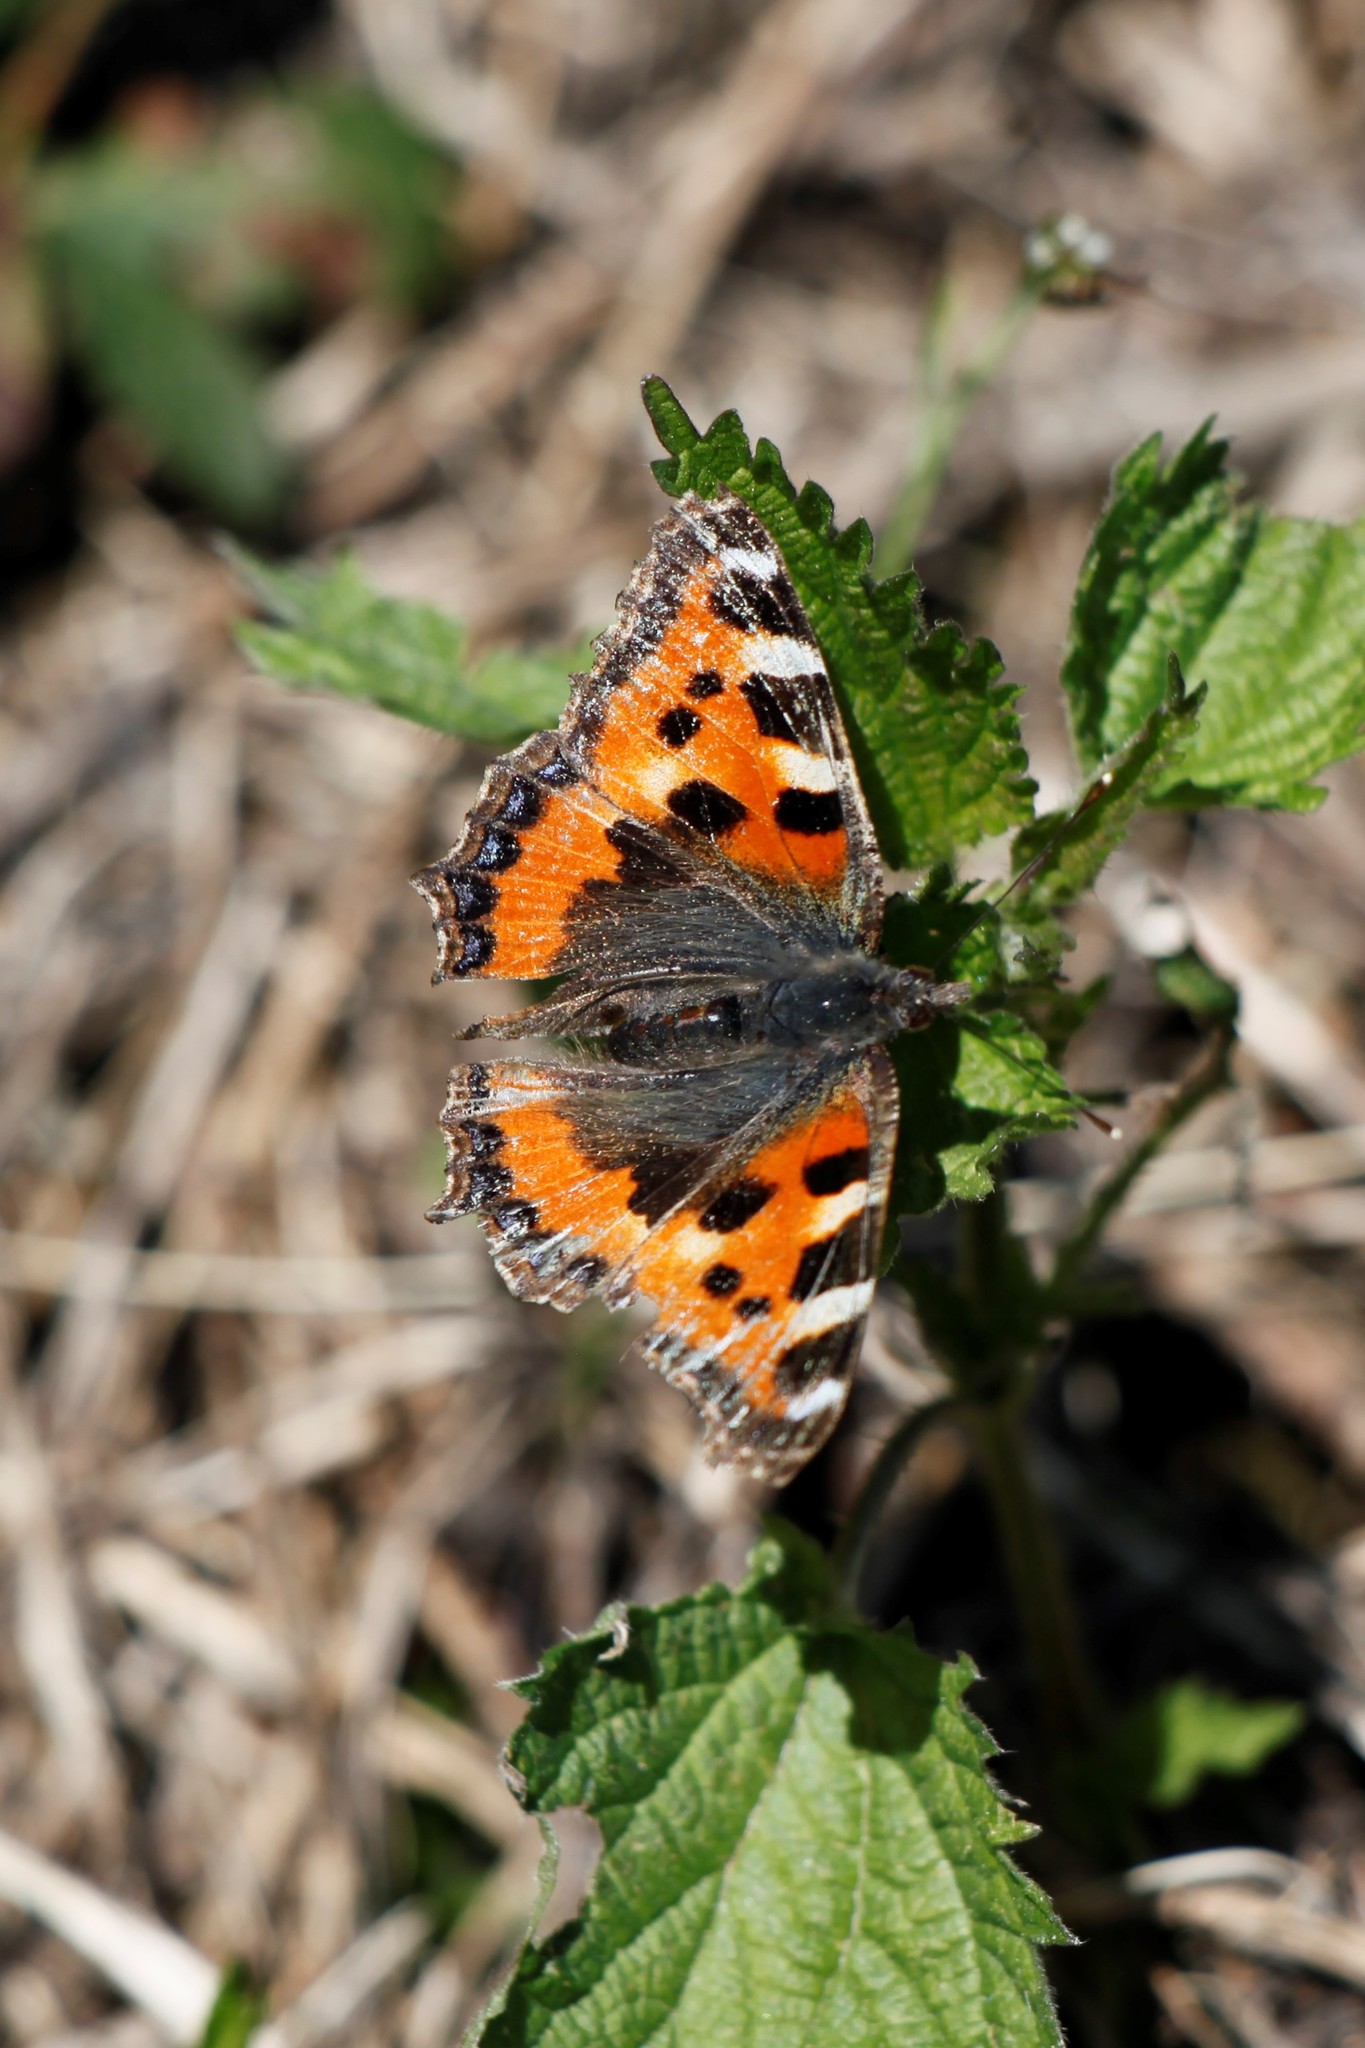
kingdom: Animalia
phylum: Arthropoda
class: Insecta
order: Lepidoptera
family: Nymphalidae
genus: Aglais
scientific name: Aglais urticae
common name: Small tortoiseshell
